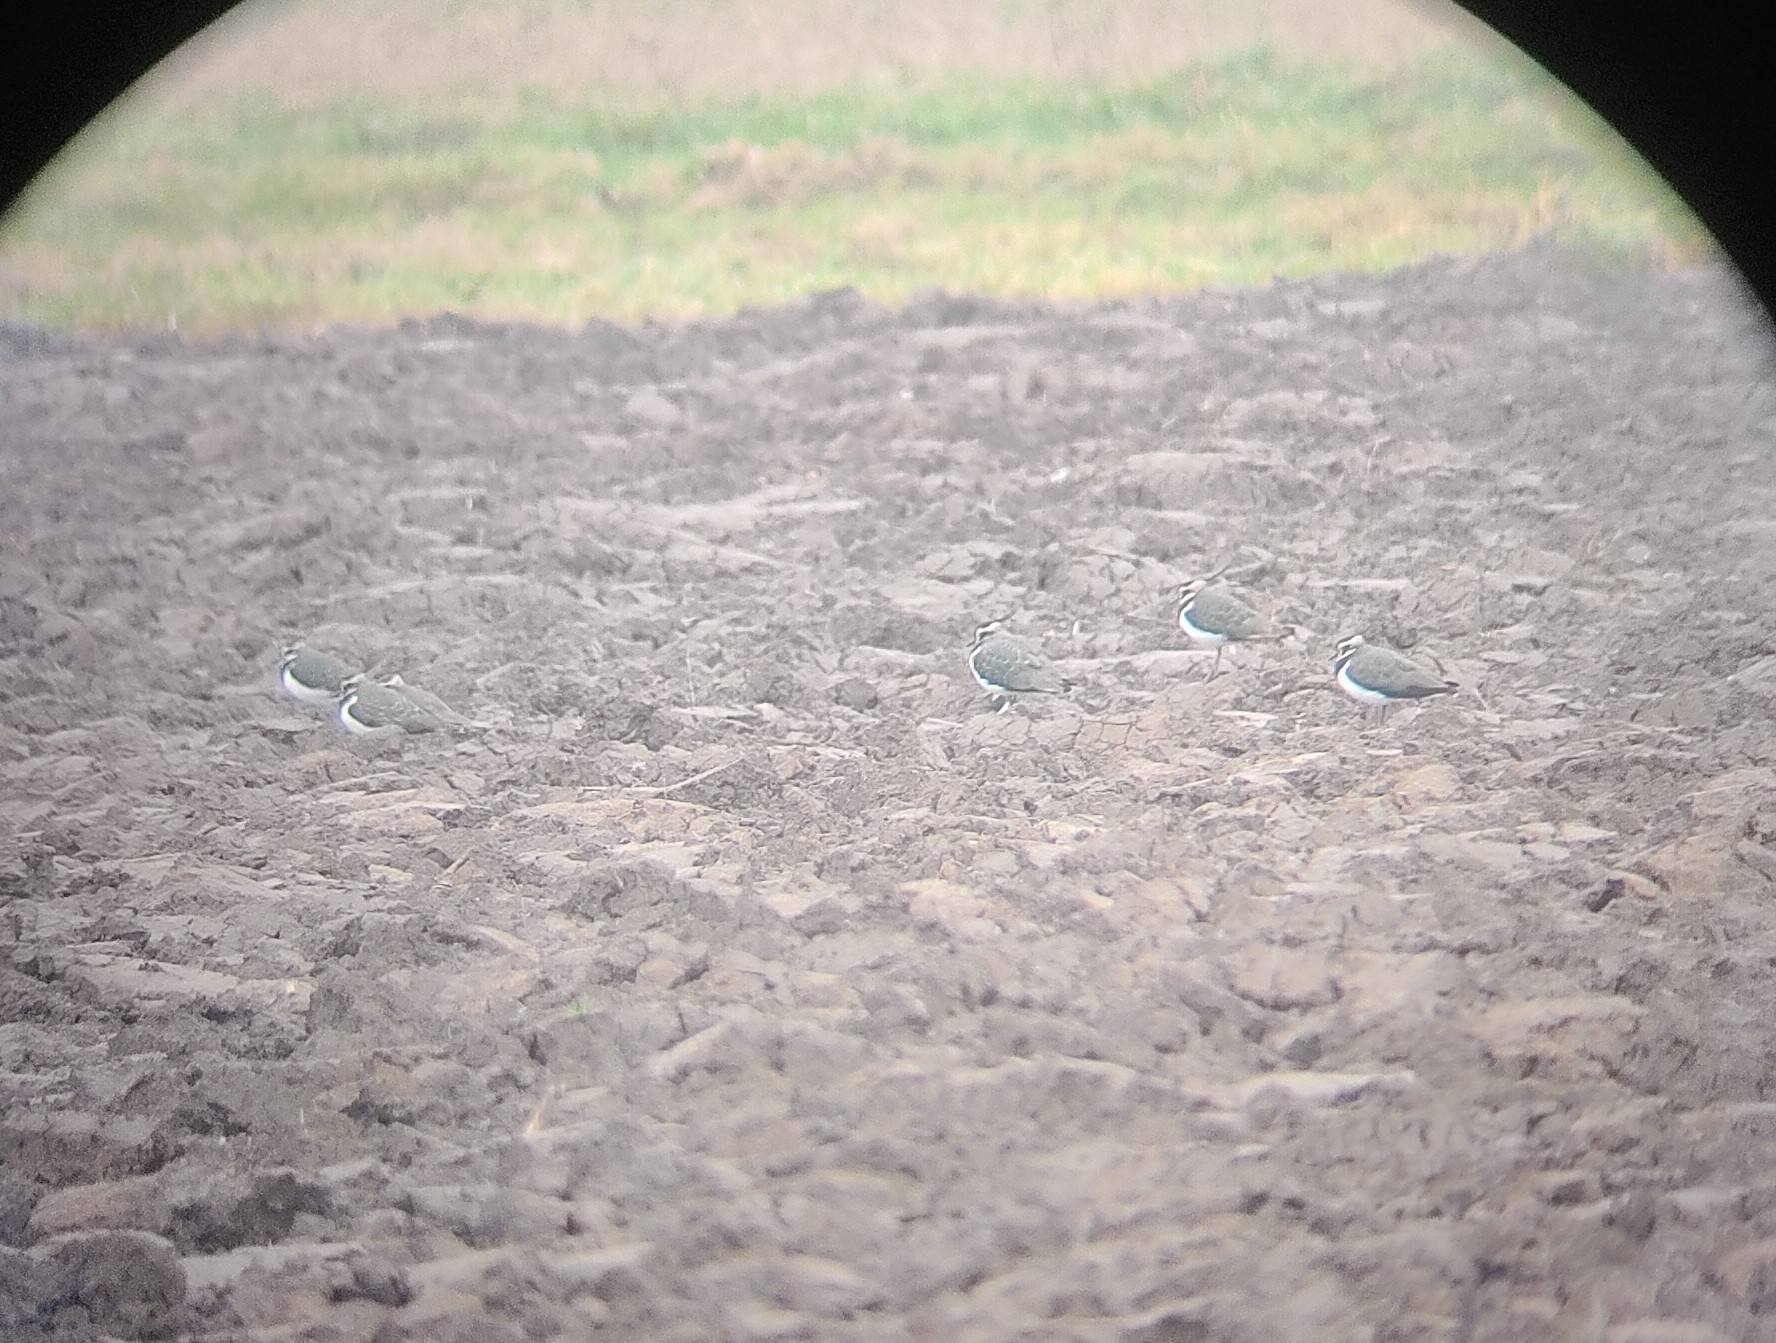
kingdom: Animalia
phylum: Chordata
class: Aves
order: Charadriiformes
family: Charadriidae
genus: Vanellus
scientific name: Vanellus vanellus
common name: Northern lapwing
